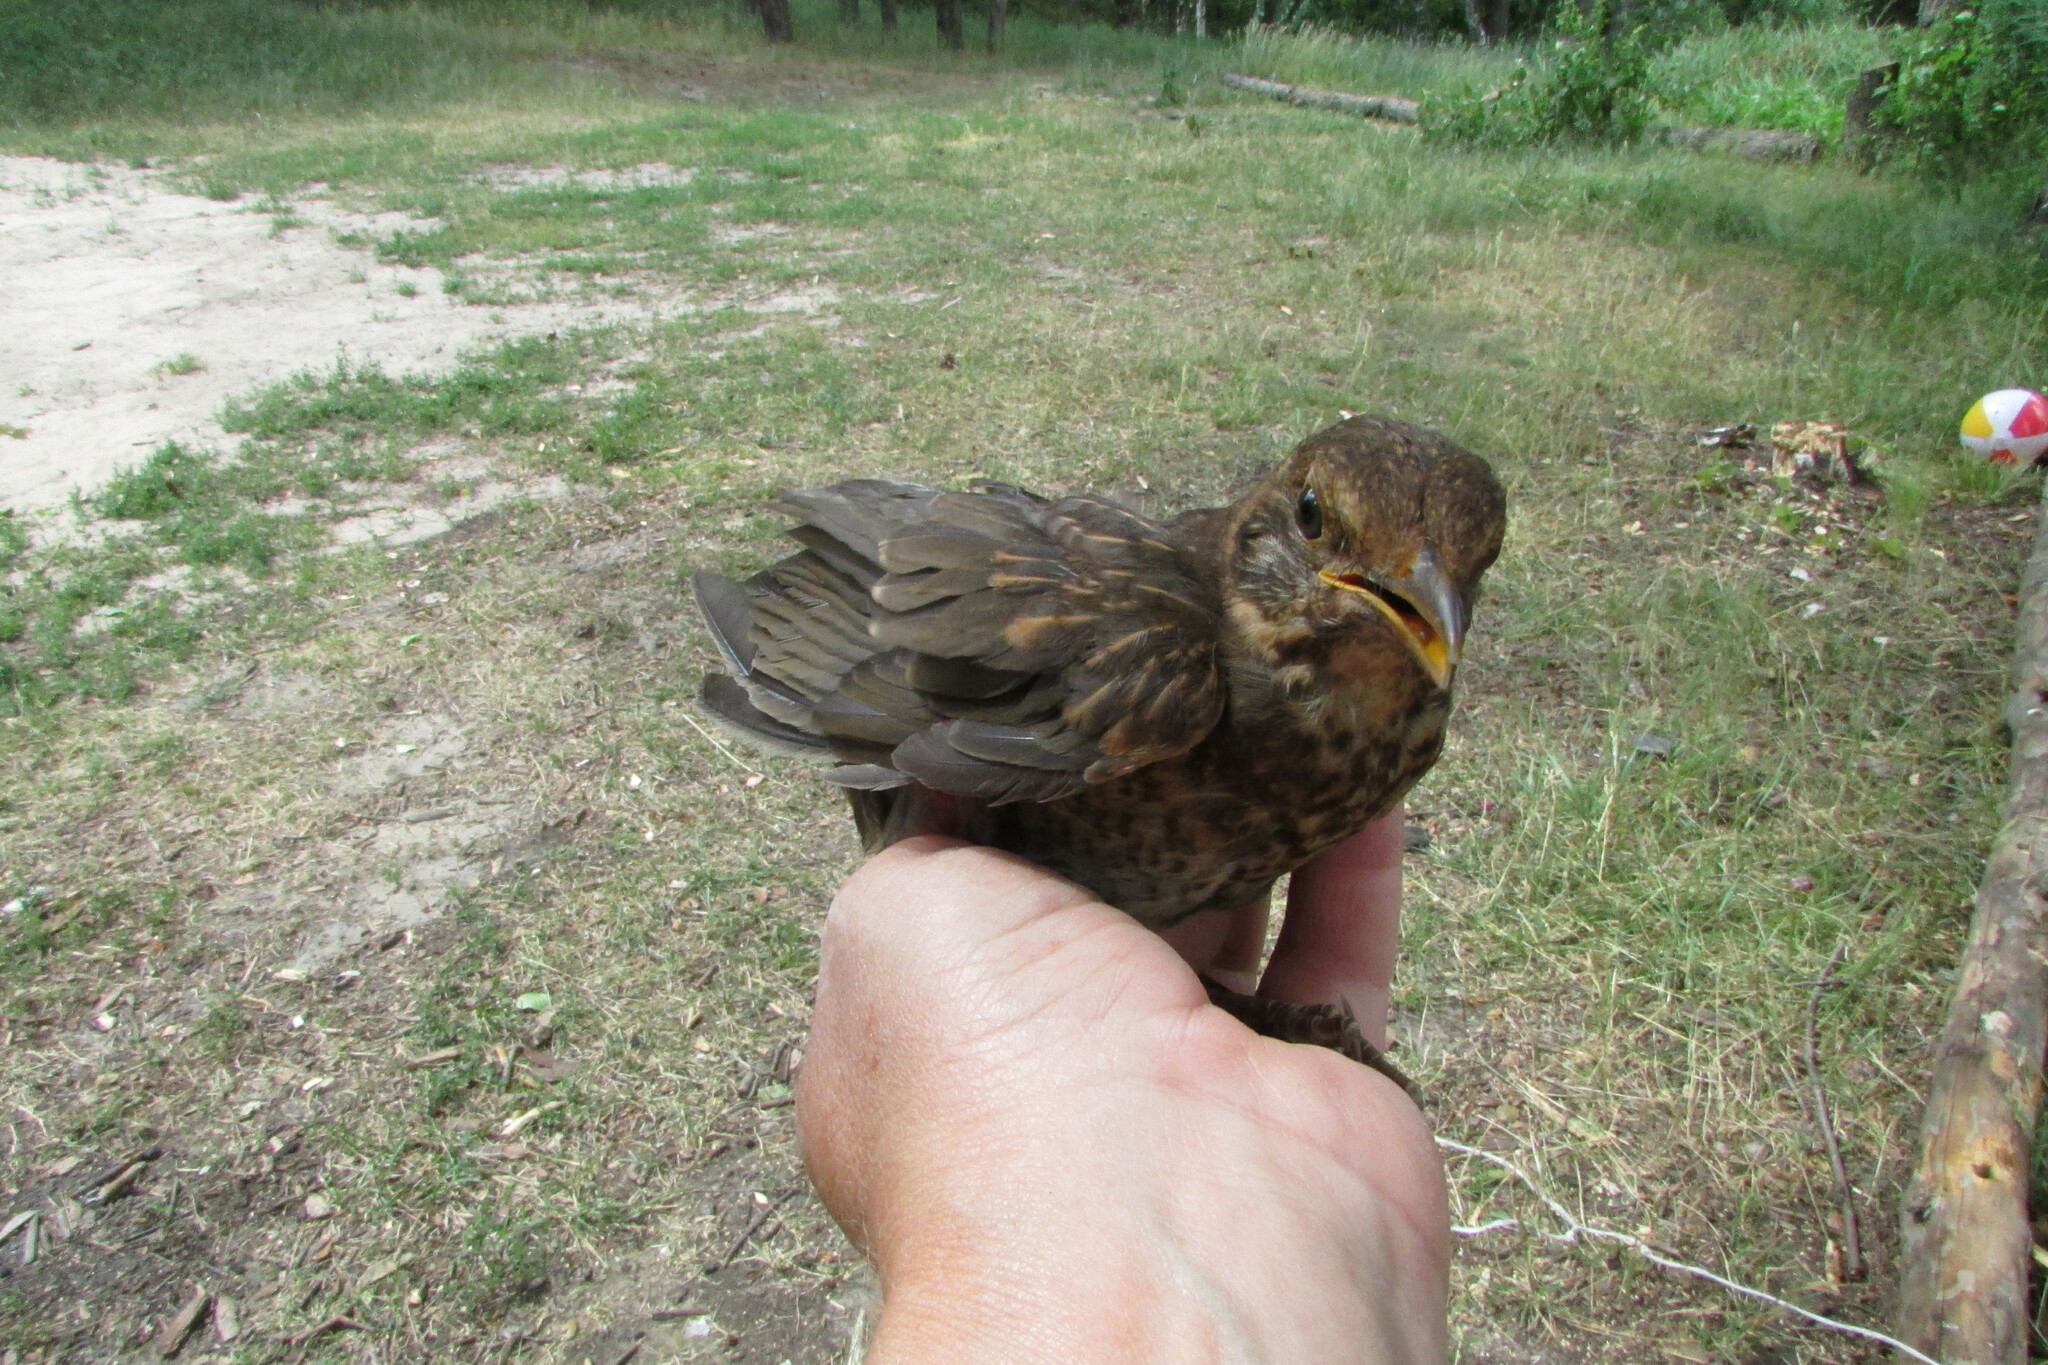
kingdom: Animalia
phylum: Chordata
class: Aves
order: Passeriformes
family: Turdidae
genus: Turdus
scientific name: Turdus merula
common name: Common blackbird
